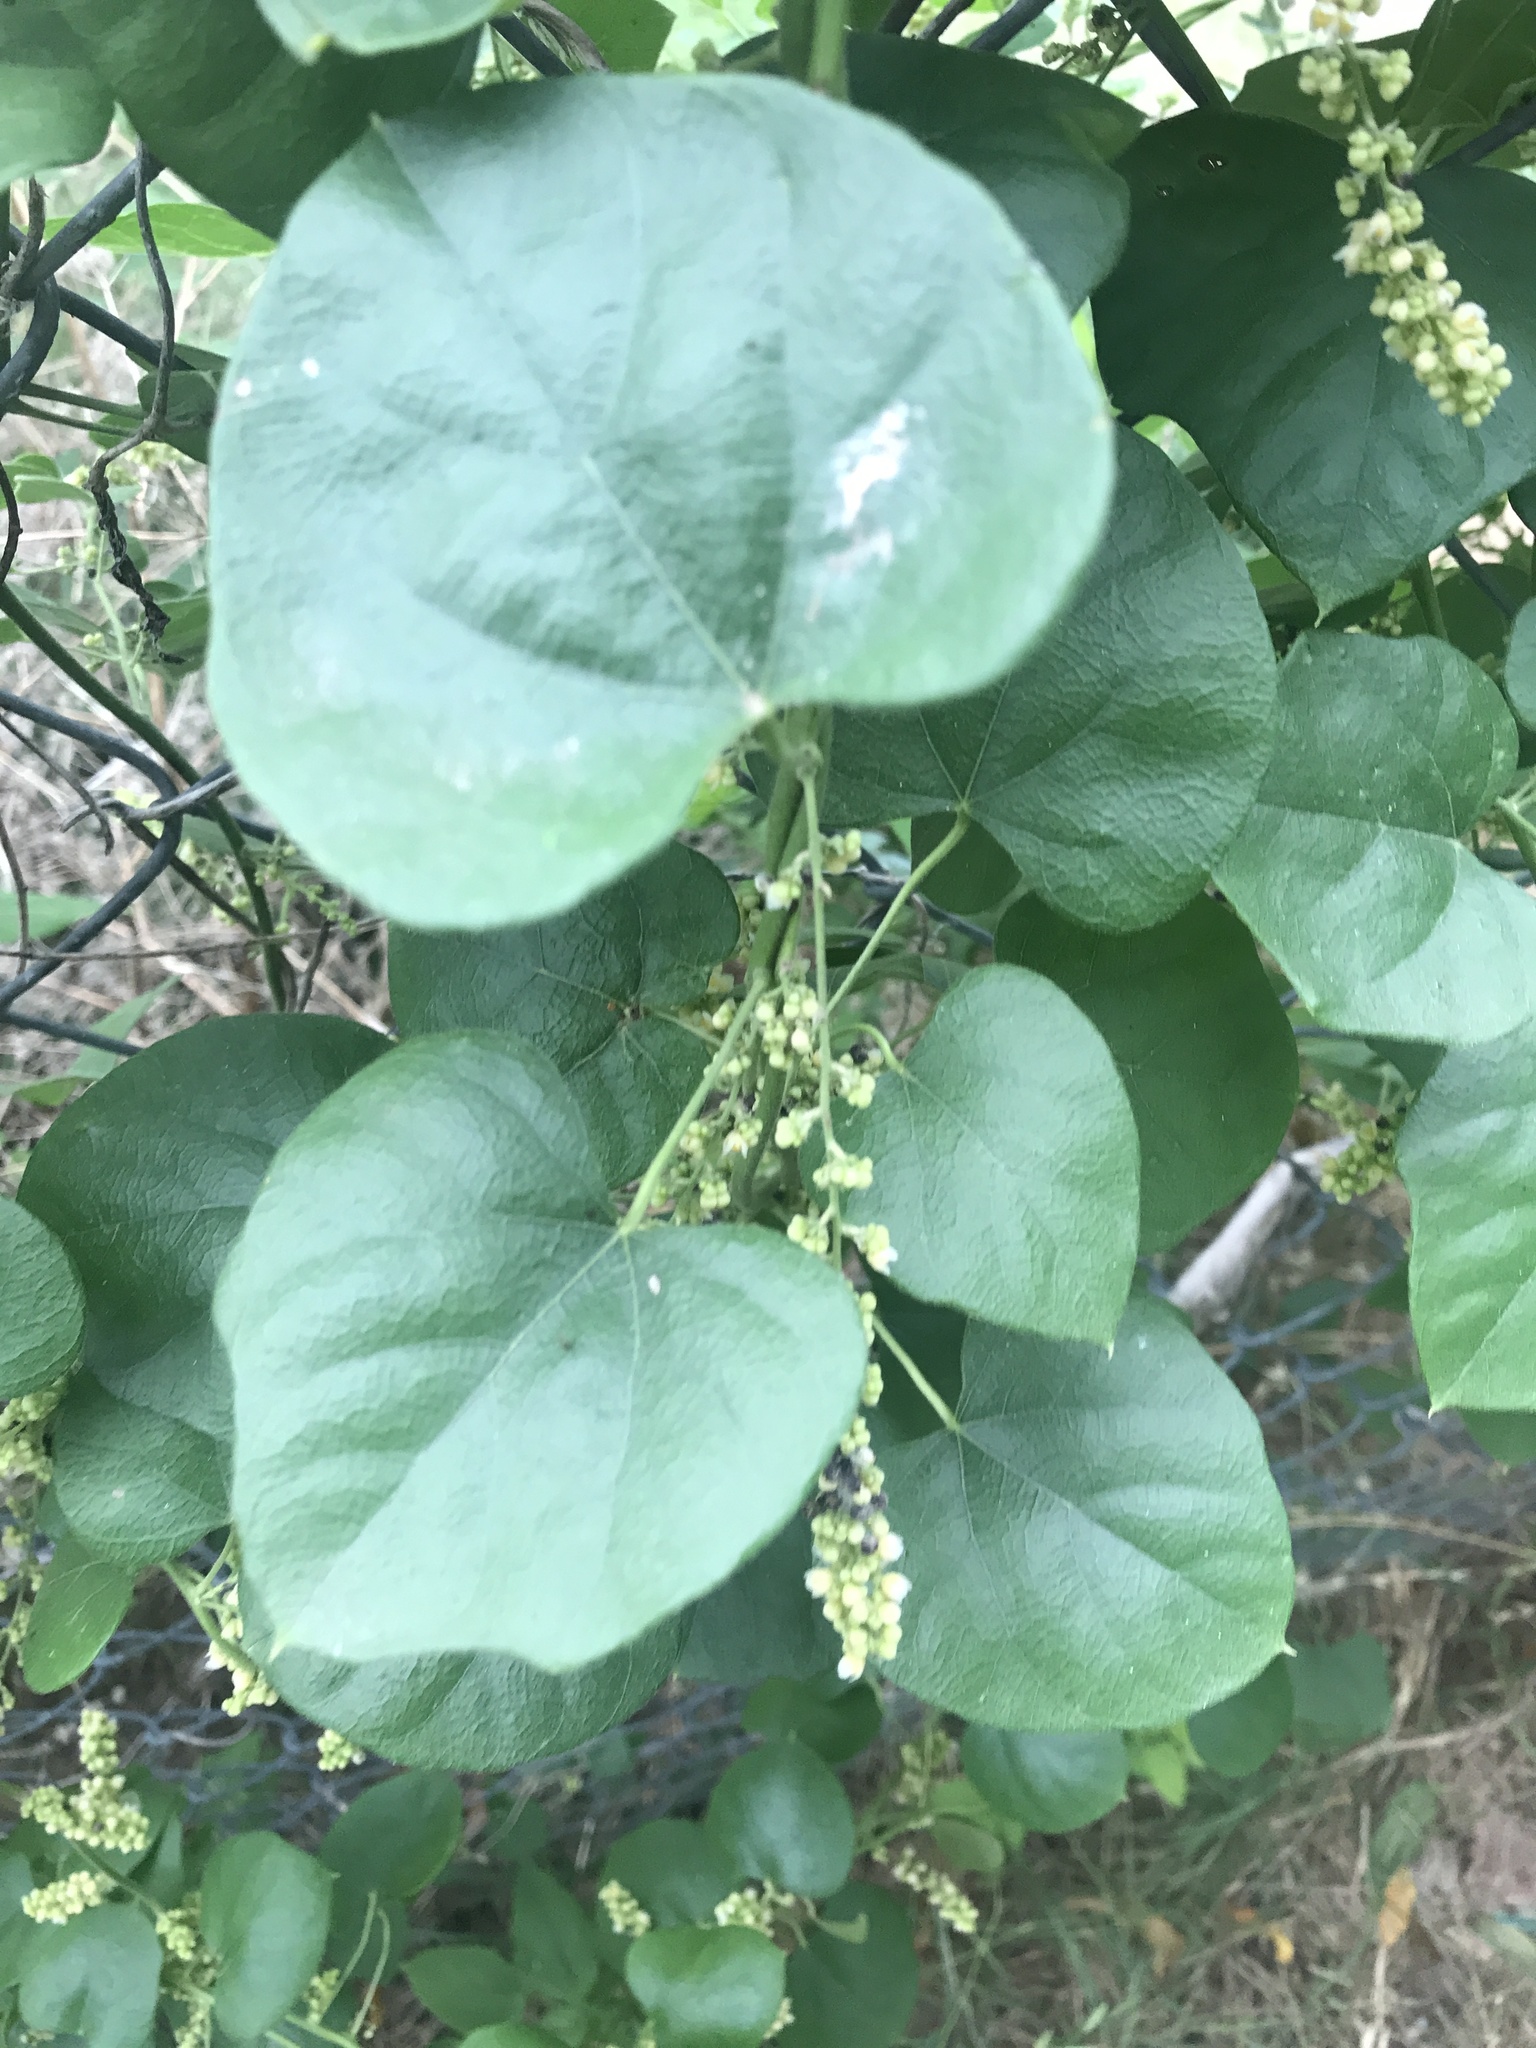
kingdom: Plantae
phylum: Tracheophyta
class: Magnoliopsida
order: Ranunculales
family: Menispermaceae
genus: Cocculus
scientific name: Cocculus carolinus
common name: Carolina moonseed
